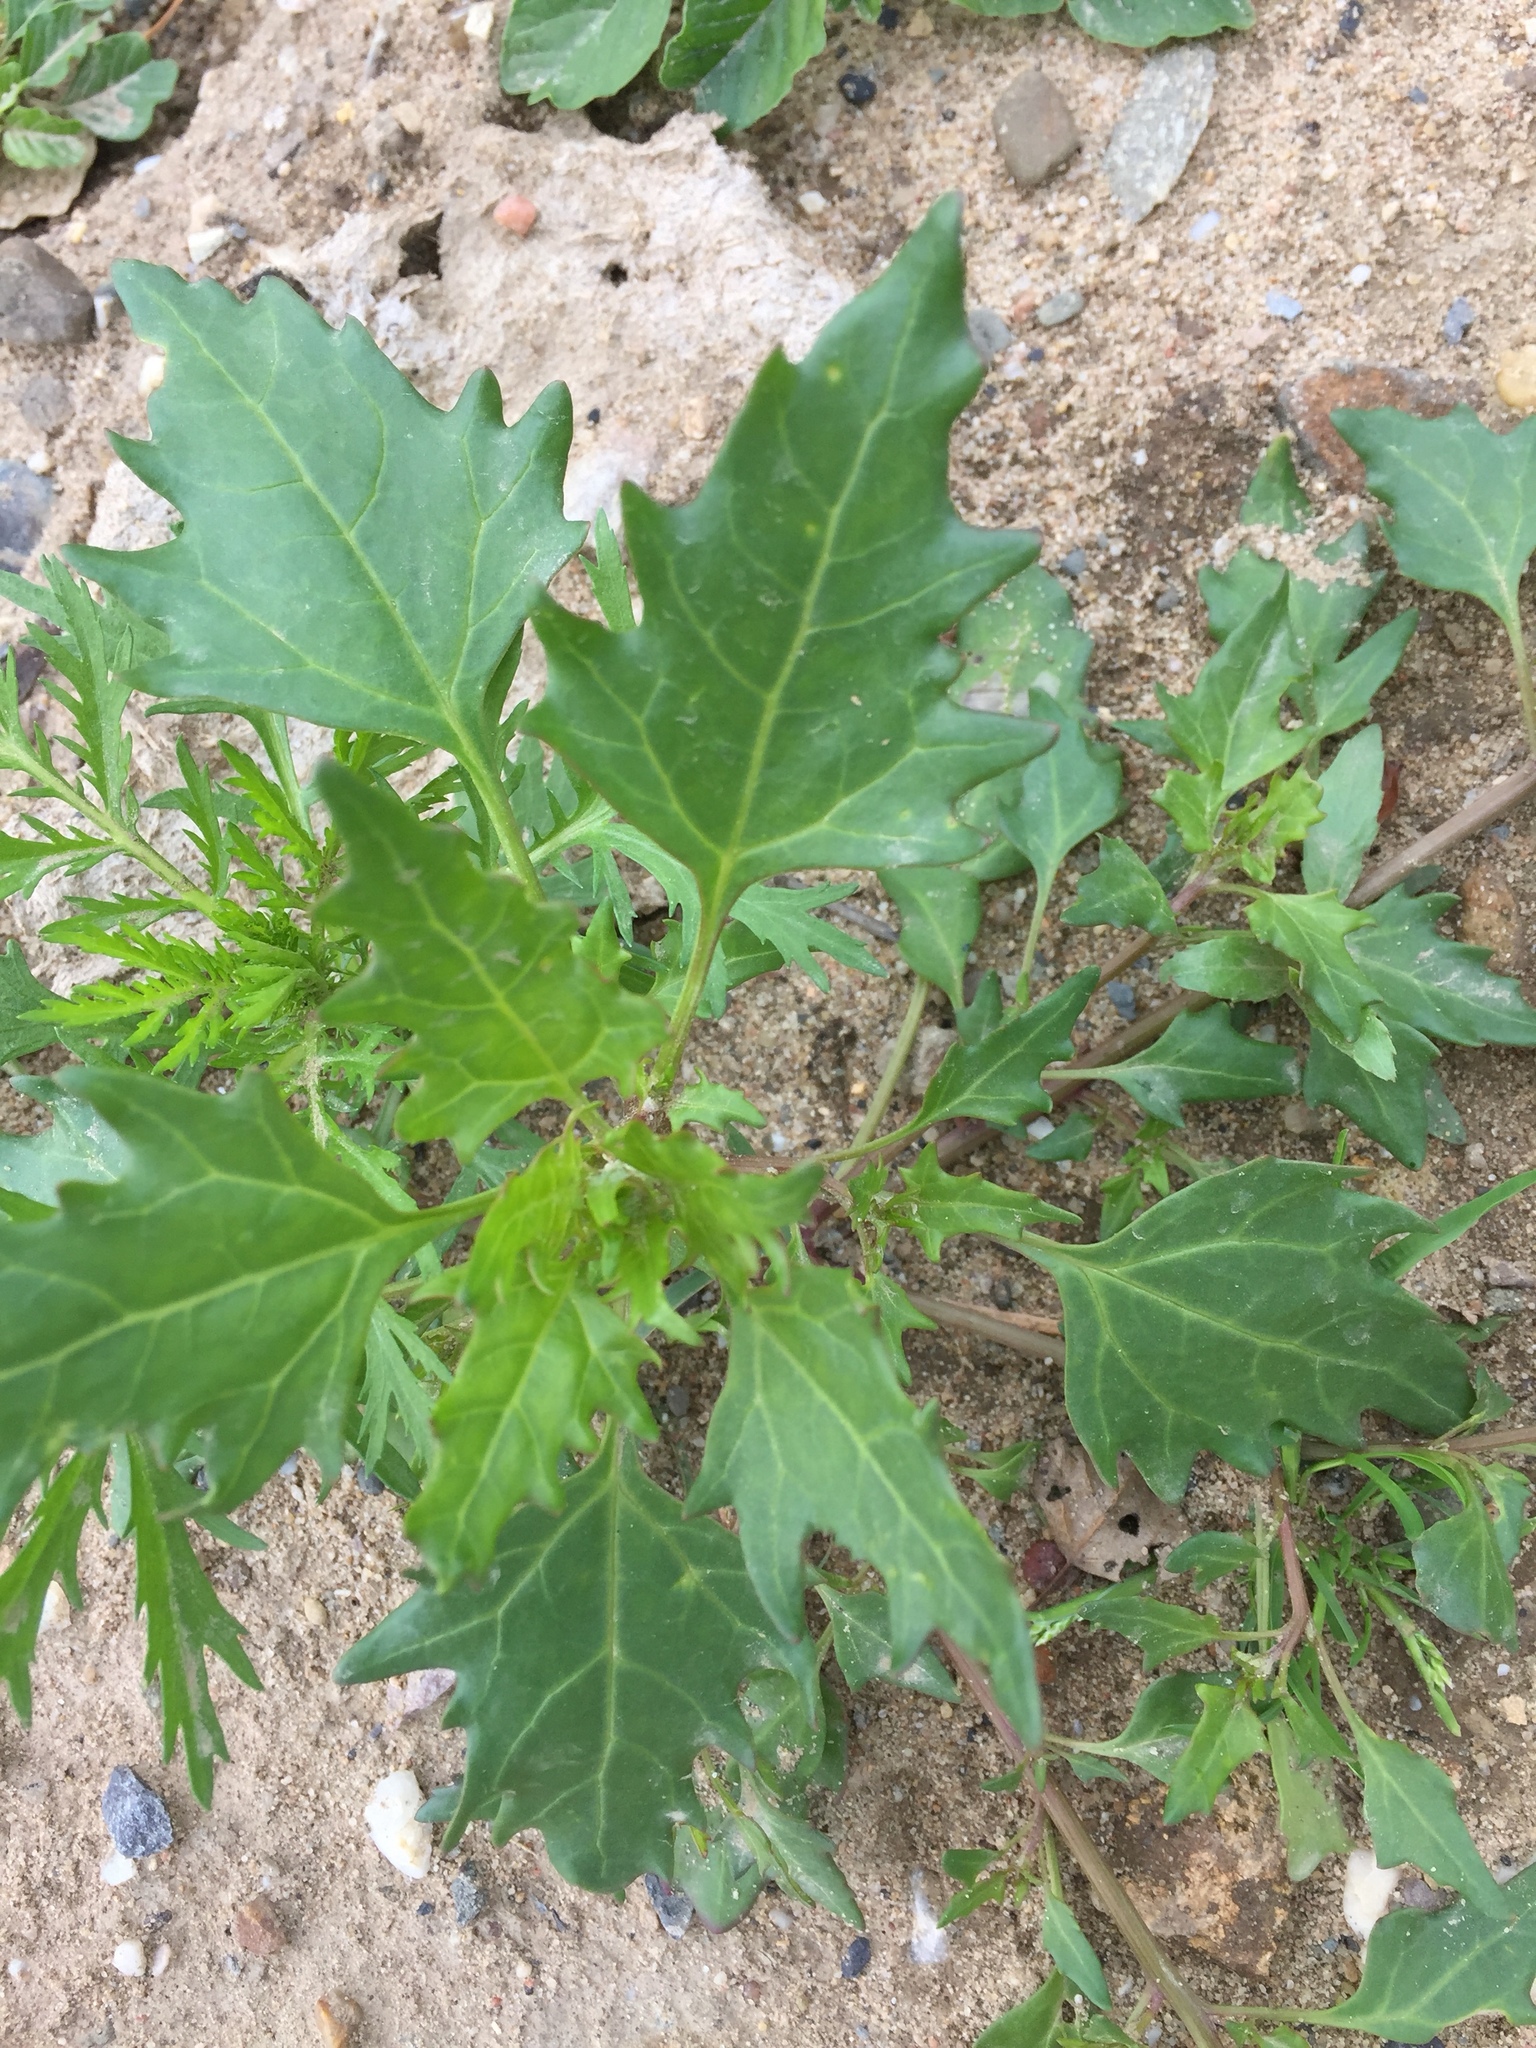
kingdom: Plantae
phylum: Tracheophyta
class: Magnoliopsida
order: Caryophyllales
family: Amaranthaceae
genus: Oxybasis
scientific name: Oxybasis rubra
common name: Red goosefoot
